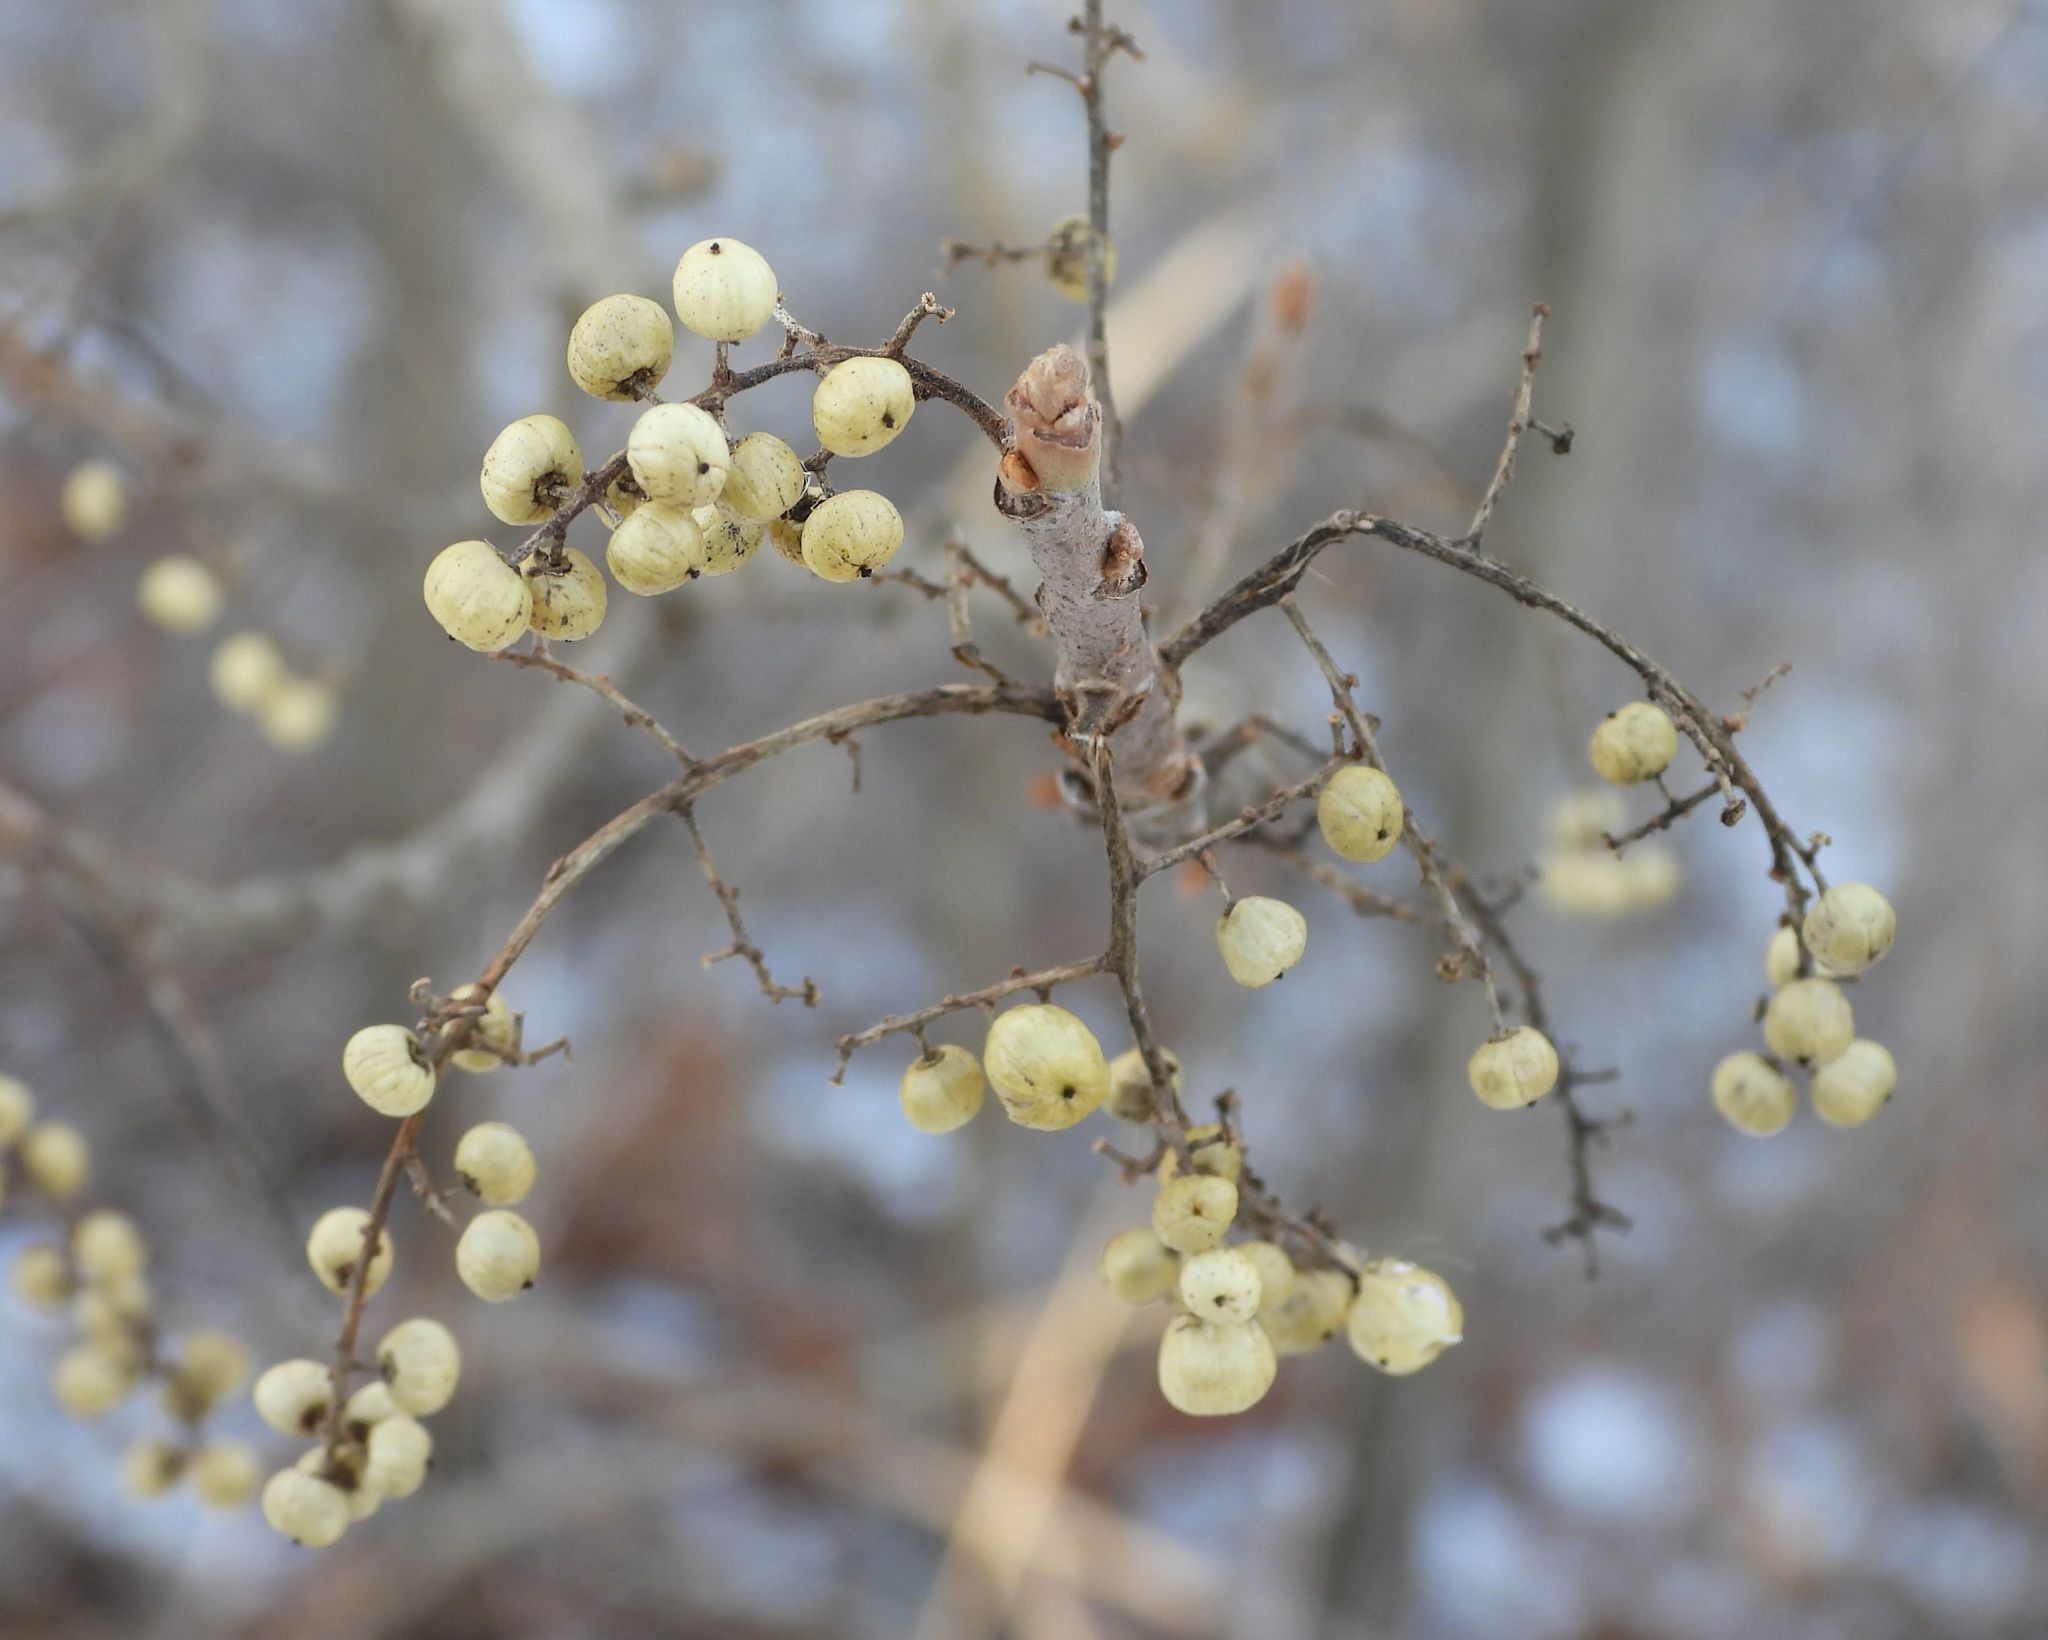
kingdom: Plantae
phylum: Tracheophyta
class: Magnoliopsida
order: Sapindales
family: Anacardiaceae
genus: Toxicodendron
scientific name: Toxicodendron radicans
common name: Poison ivy
